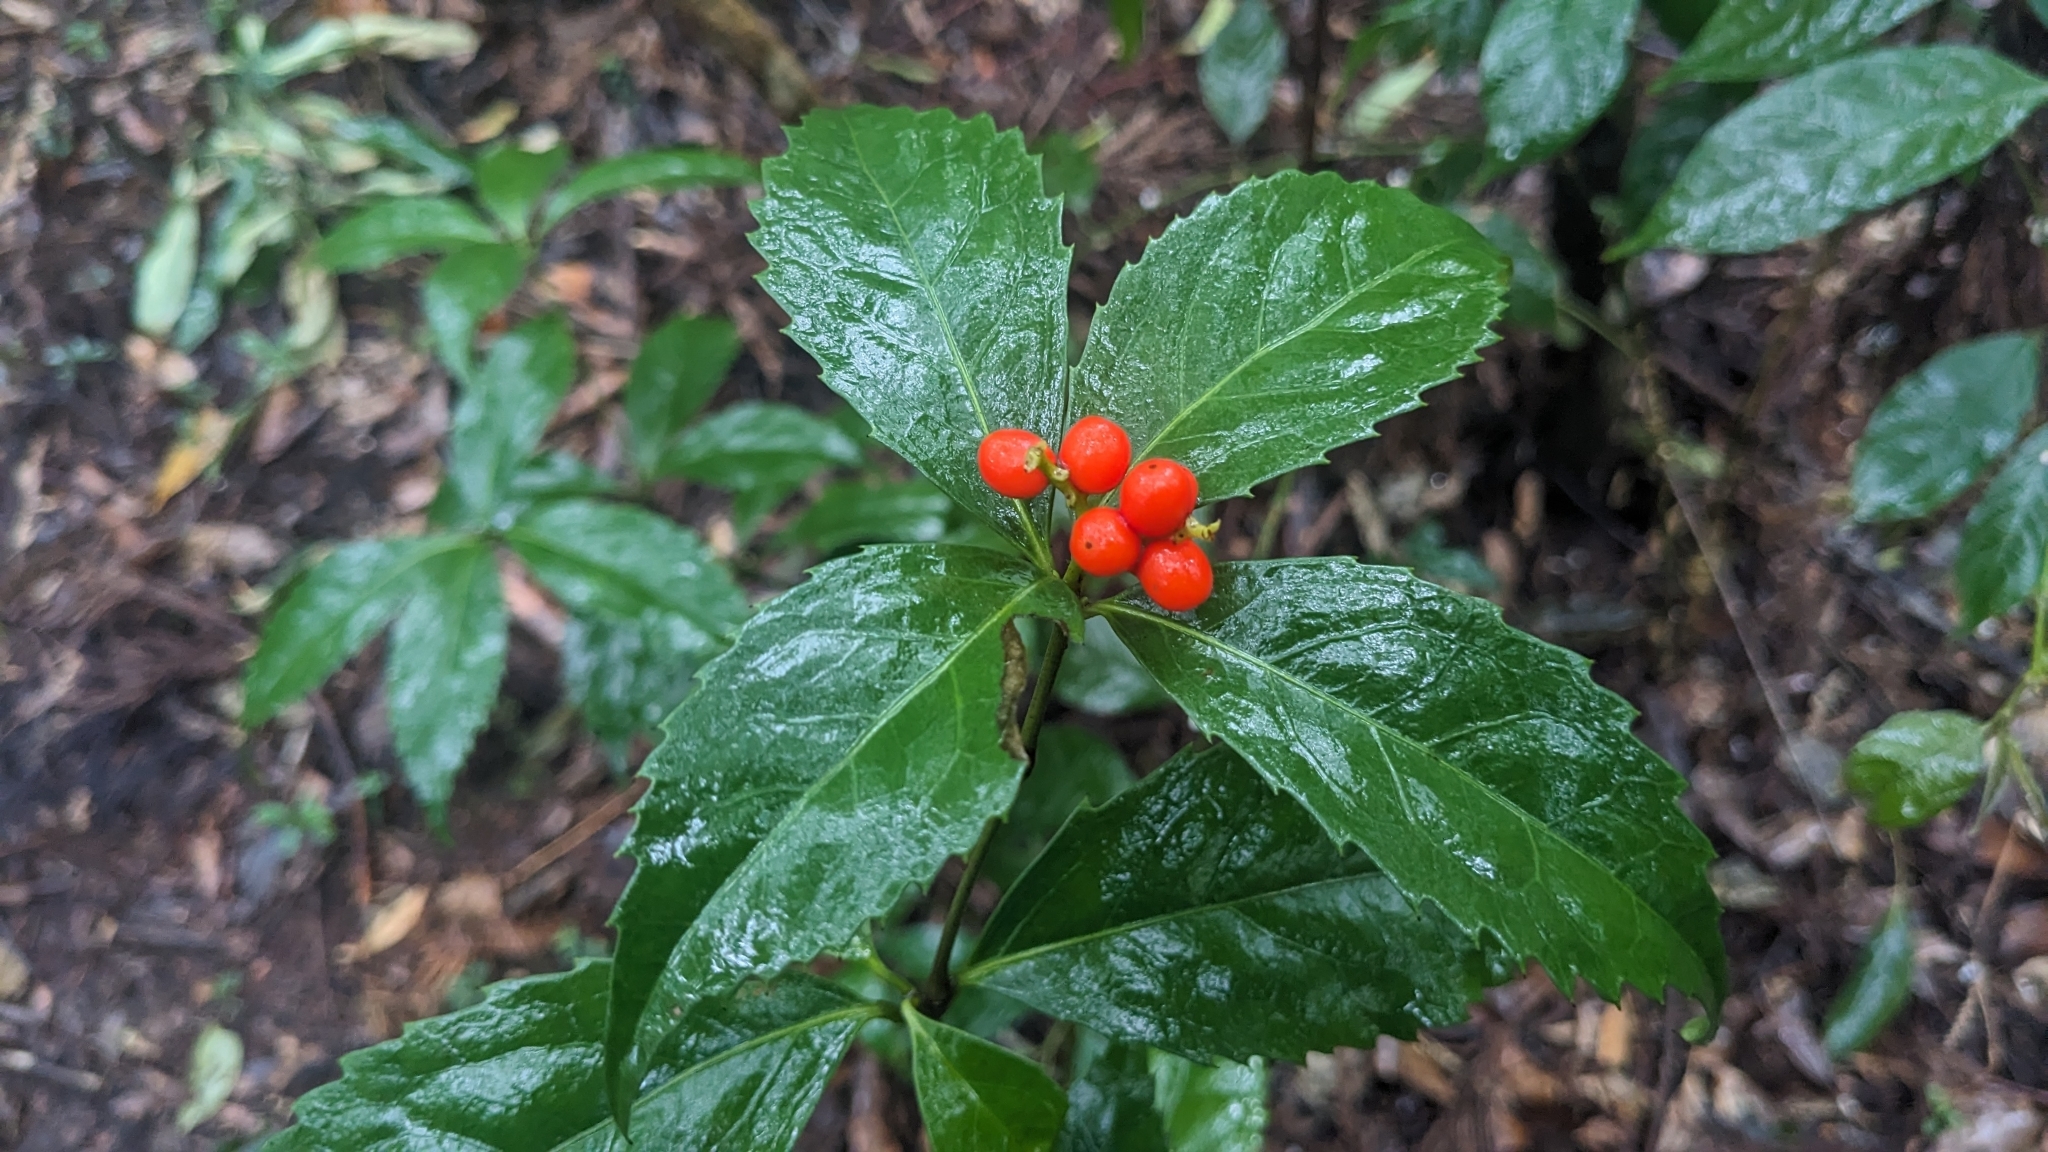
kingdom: Plantae
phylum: Tracheophyta
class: Magnoliopsida
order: Chloranthales
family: Chloranthaceae
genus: Sarcandra
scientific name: Sarcandra glabra
